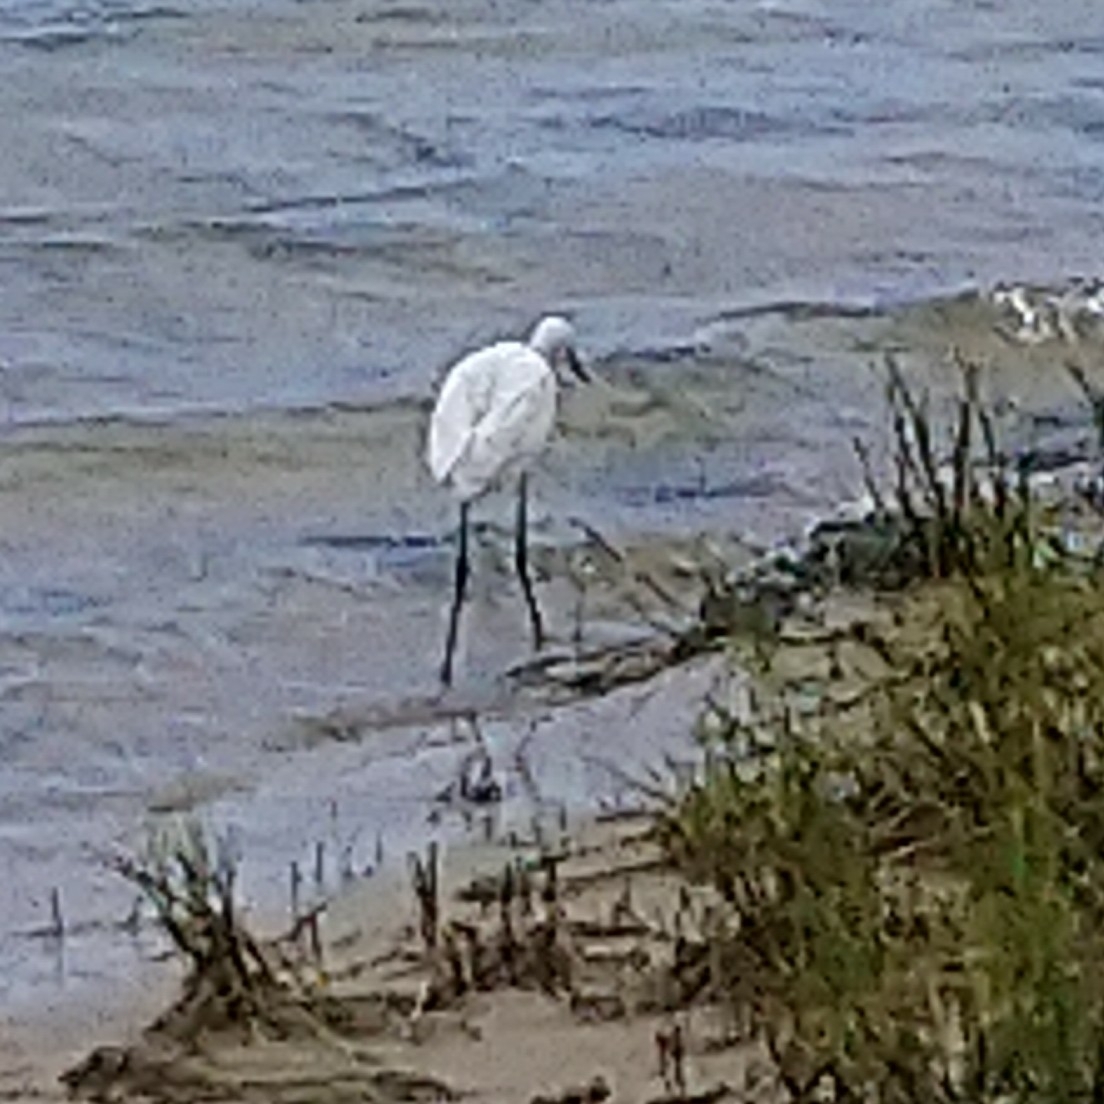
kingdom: Animalia
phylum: Chordata
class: Aves
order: Pelecaniformes
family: Ardeidae
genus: Egretta
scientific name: Egretta garzetta
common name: Little egret
